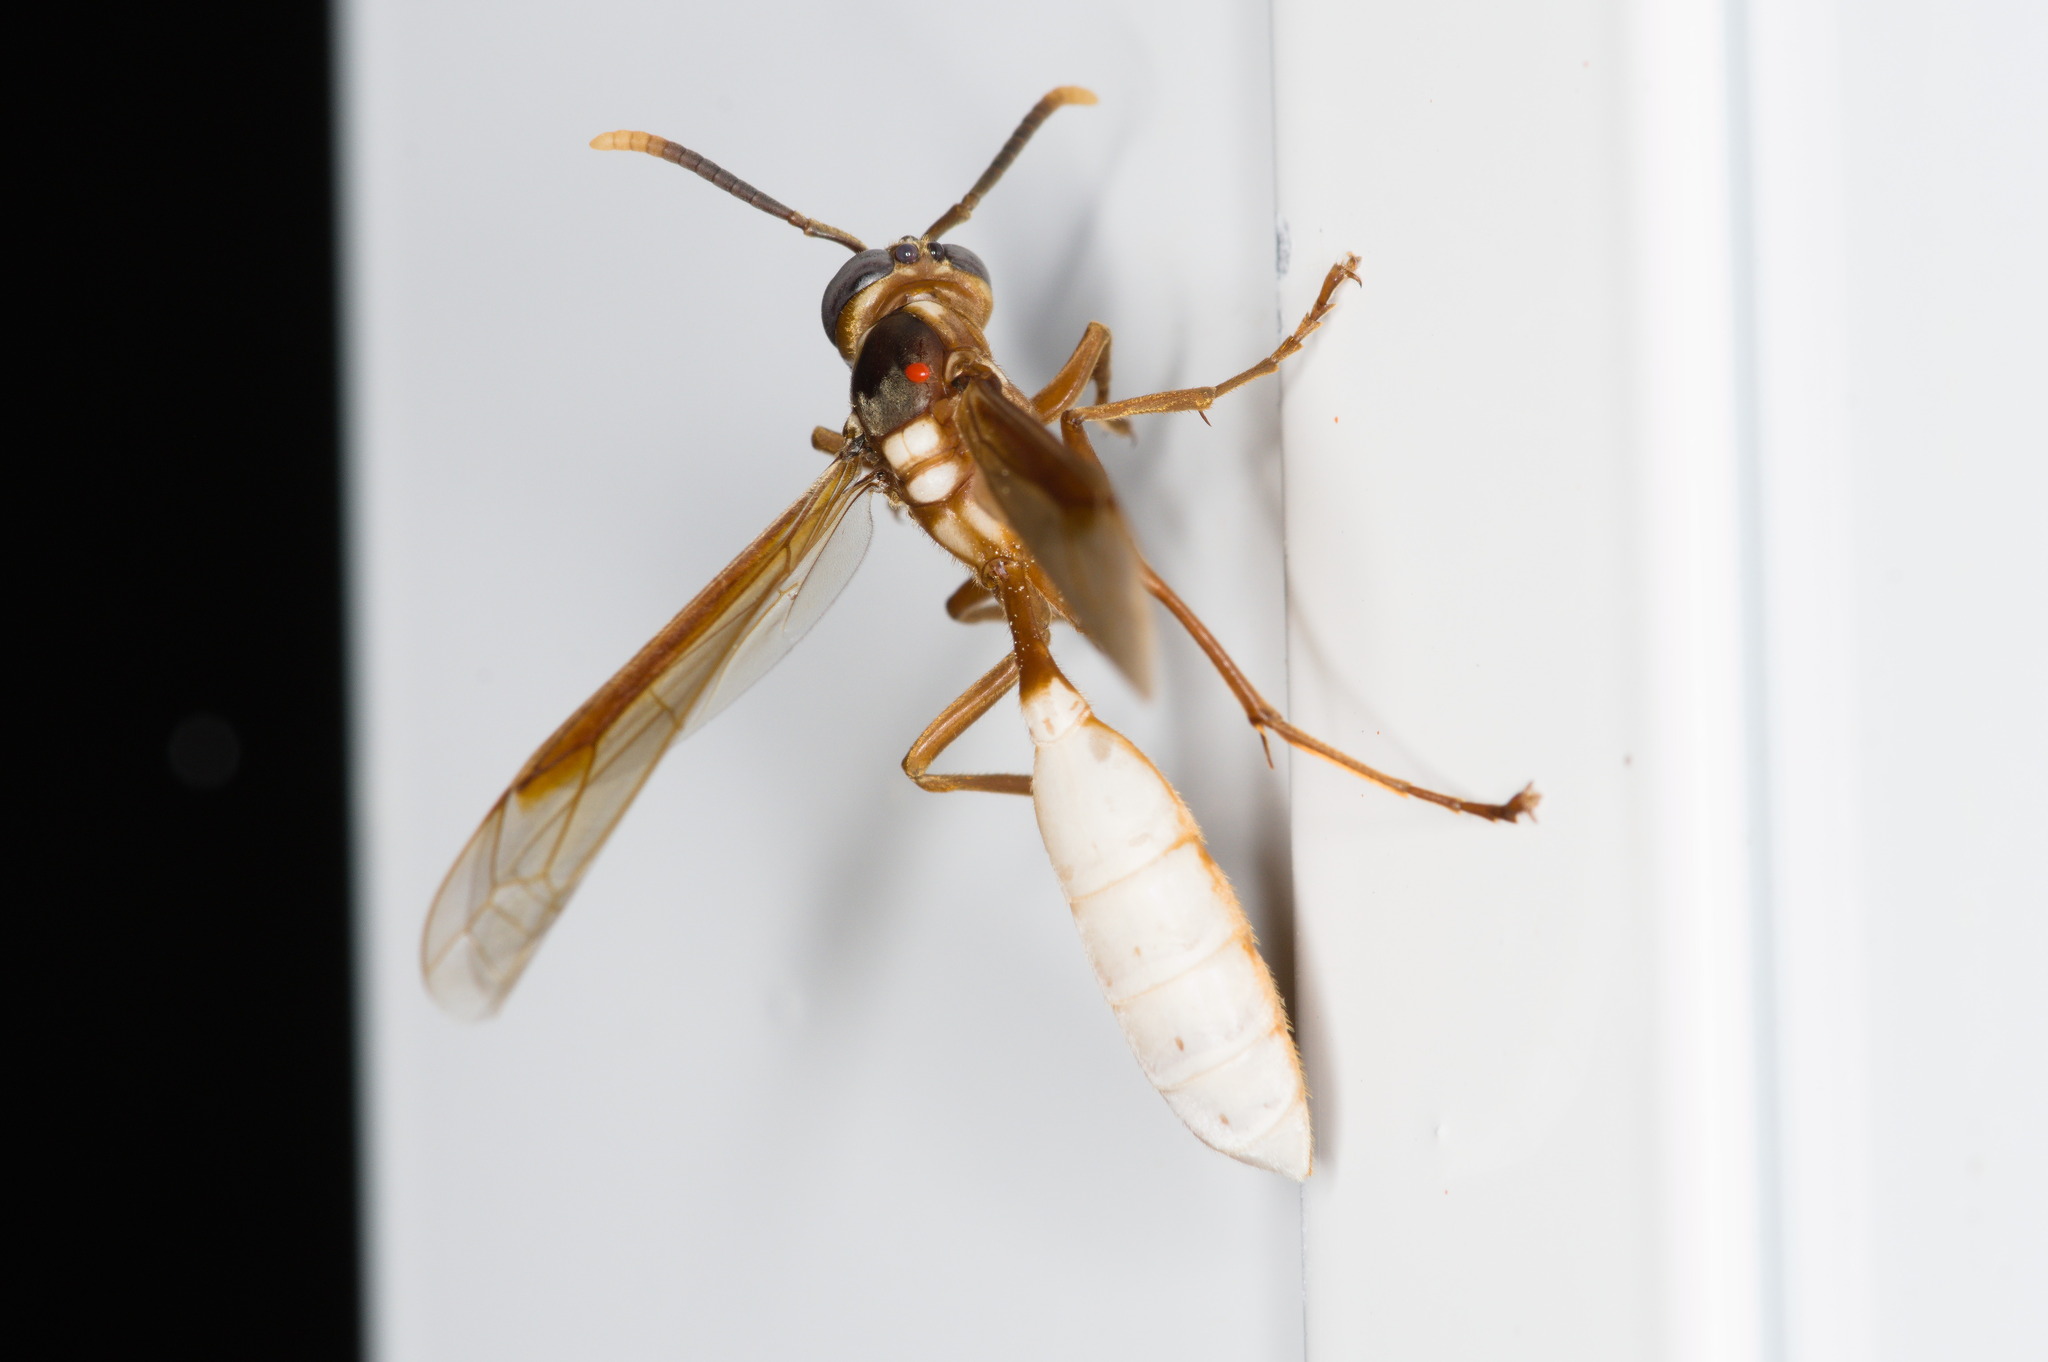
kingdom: Animalia
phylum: Arthropoda
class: Insecta
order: Hymenoptera
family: Vespidae
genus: Apoica
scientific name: Apoica pallens
